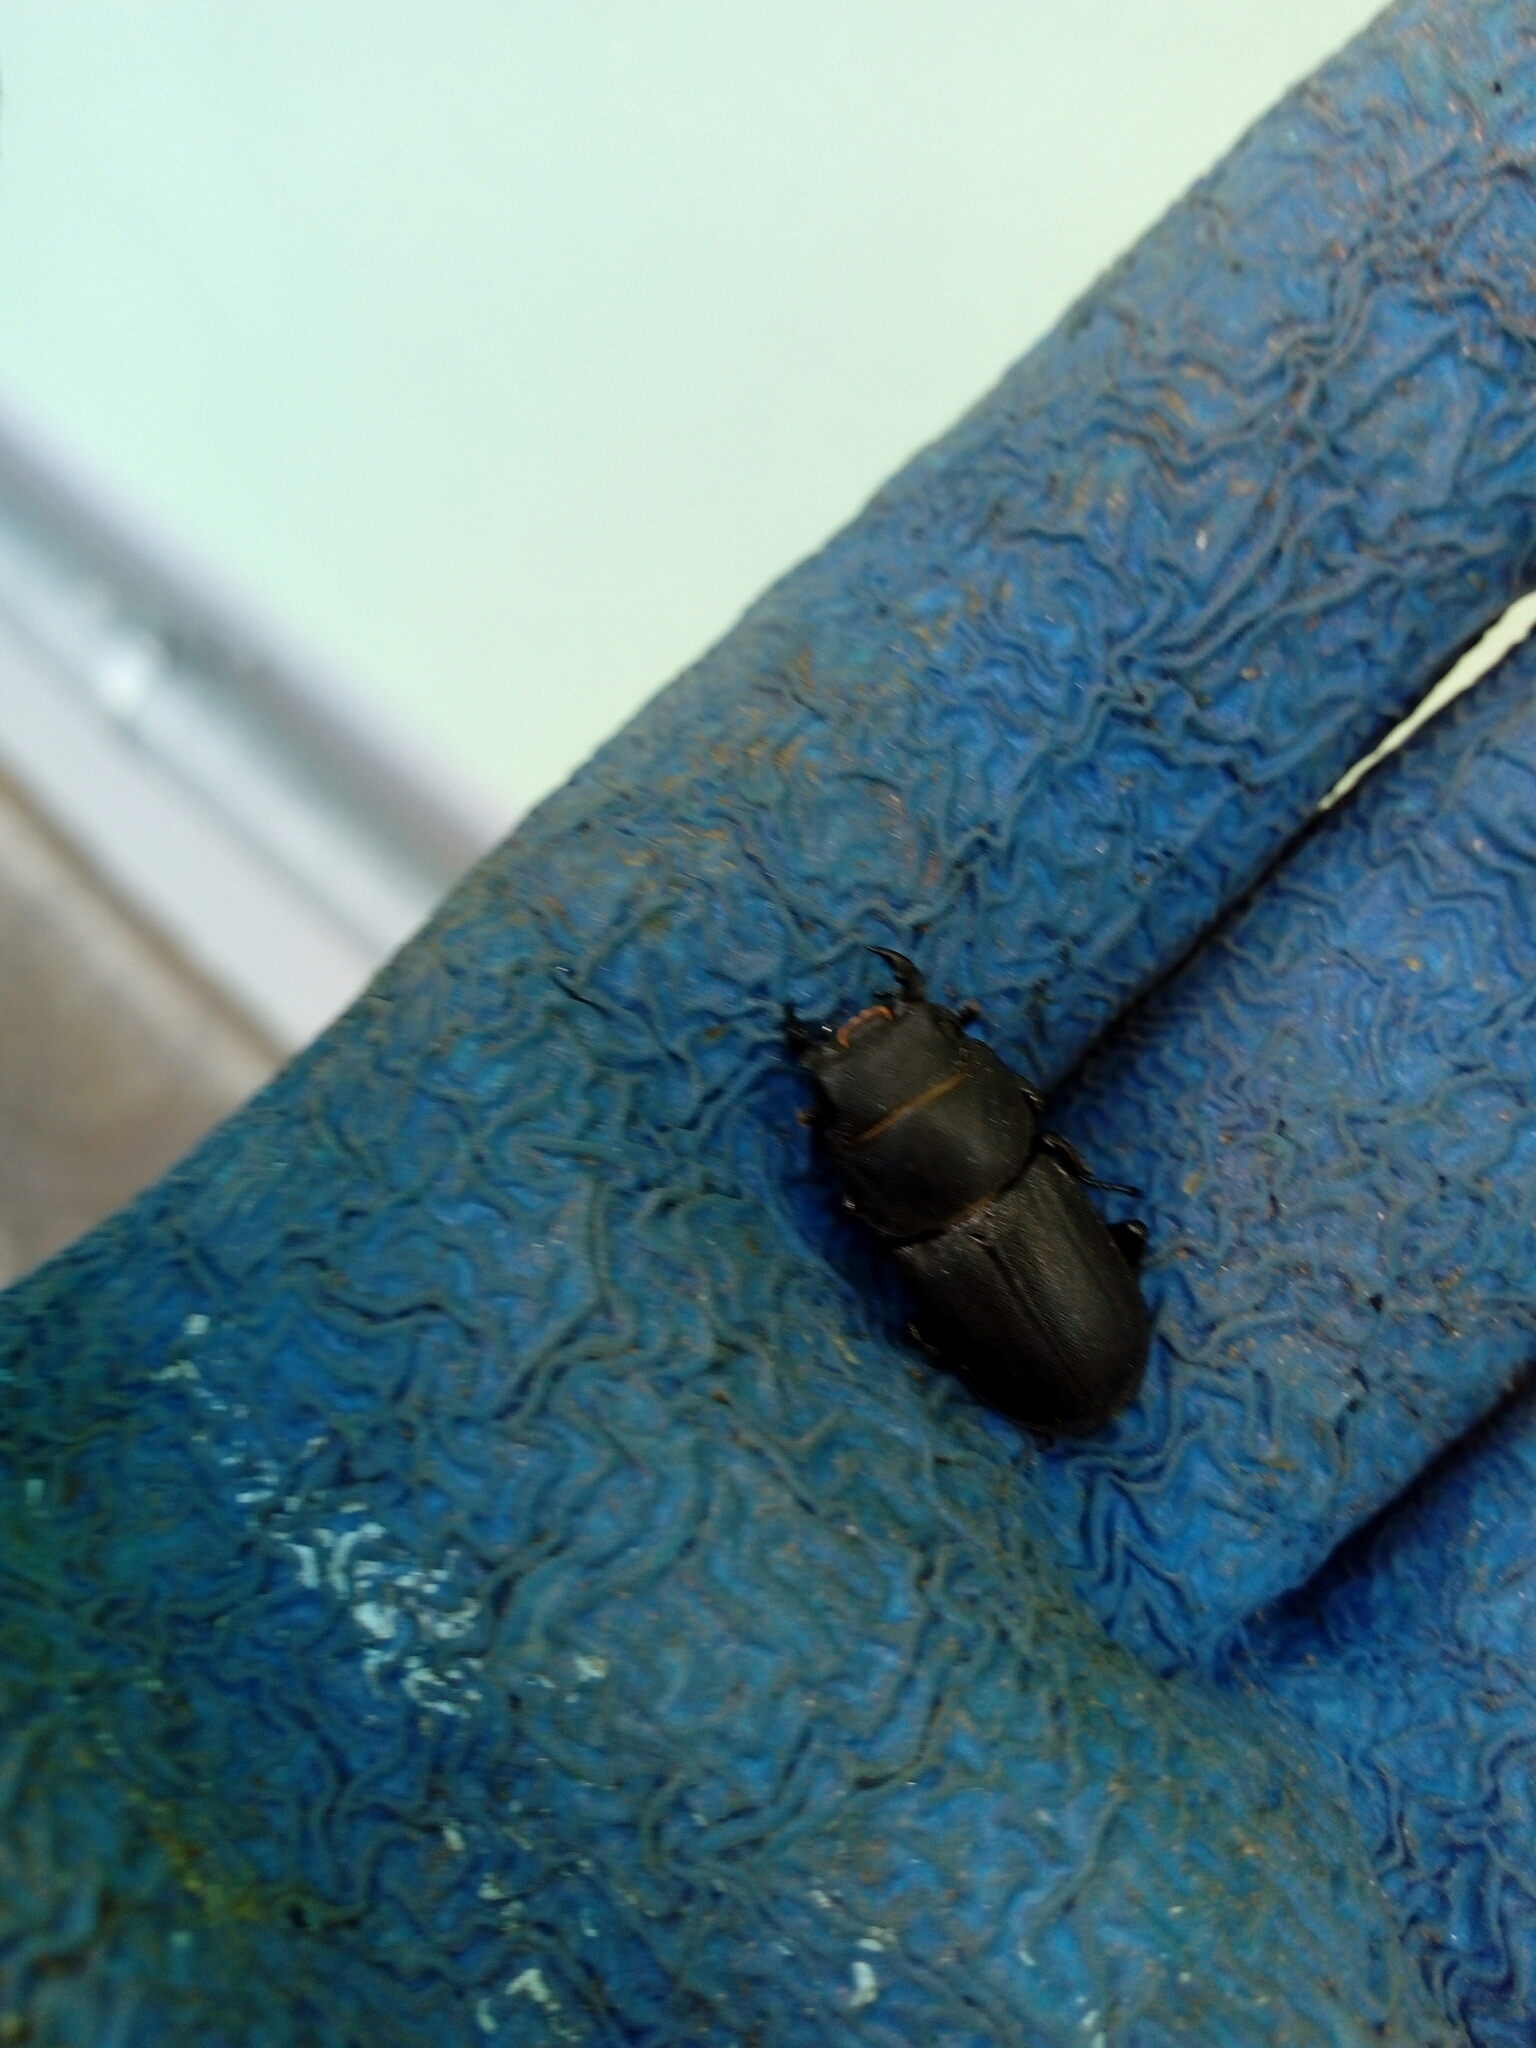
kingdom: Animalia
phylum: Arthropoda
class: Insecta
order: Coleoptera
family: Lucanidae
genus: Dorcus
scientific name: Dorcus parallelipipedus
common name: Lesser stag beetle
